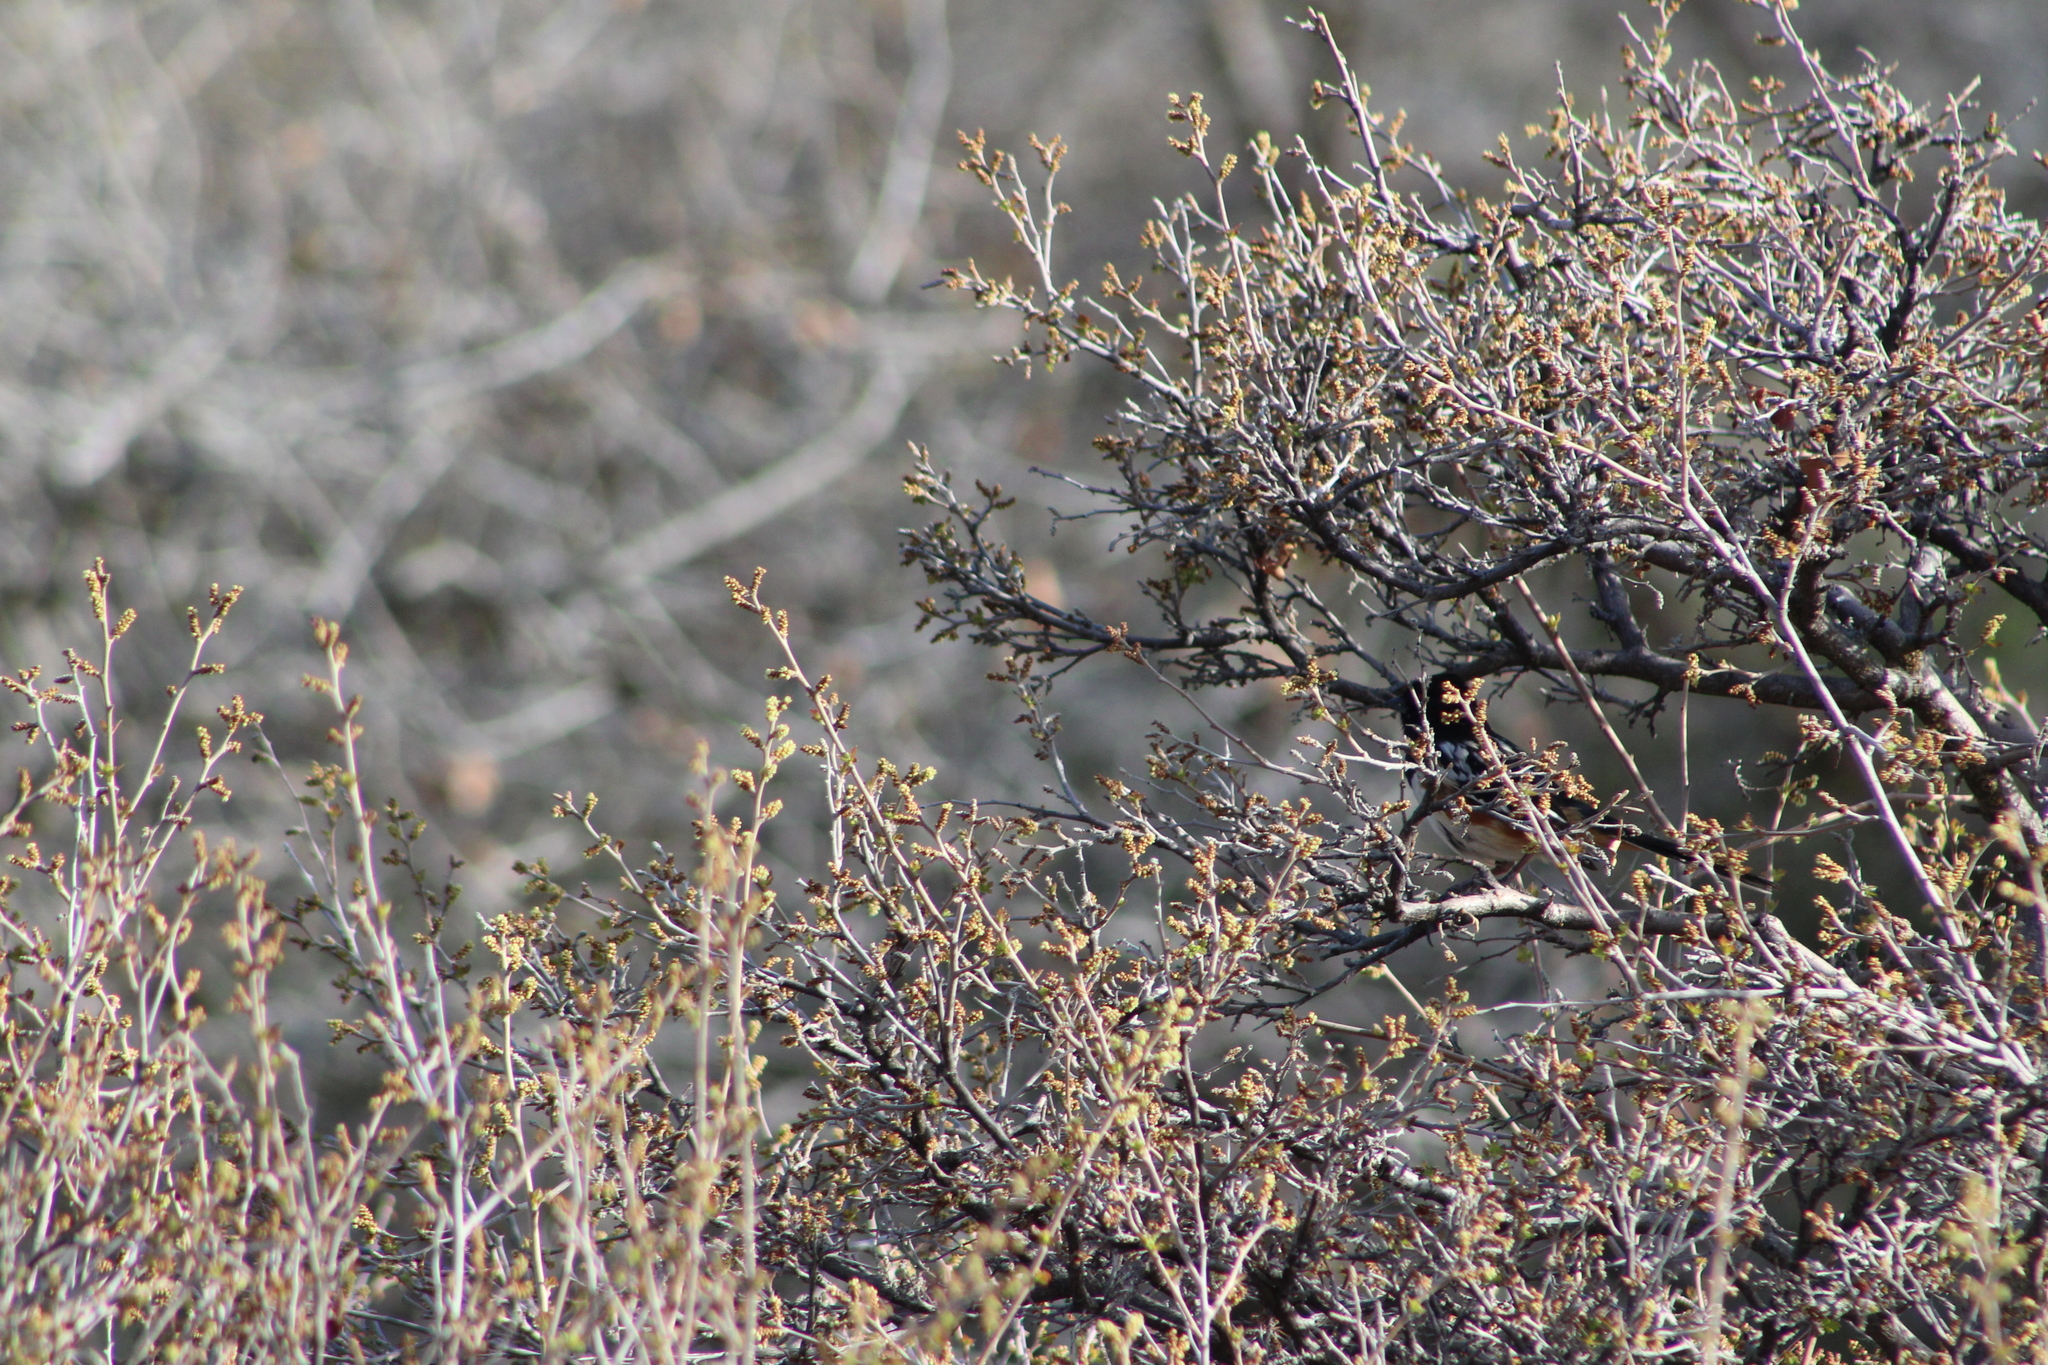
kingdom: Animalia
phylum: Chordata
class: Aves
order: Passeriformes
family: Passerellidae
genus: Pipilo
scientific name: Pipilo maculatus
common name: Spotted towhee
